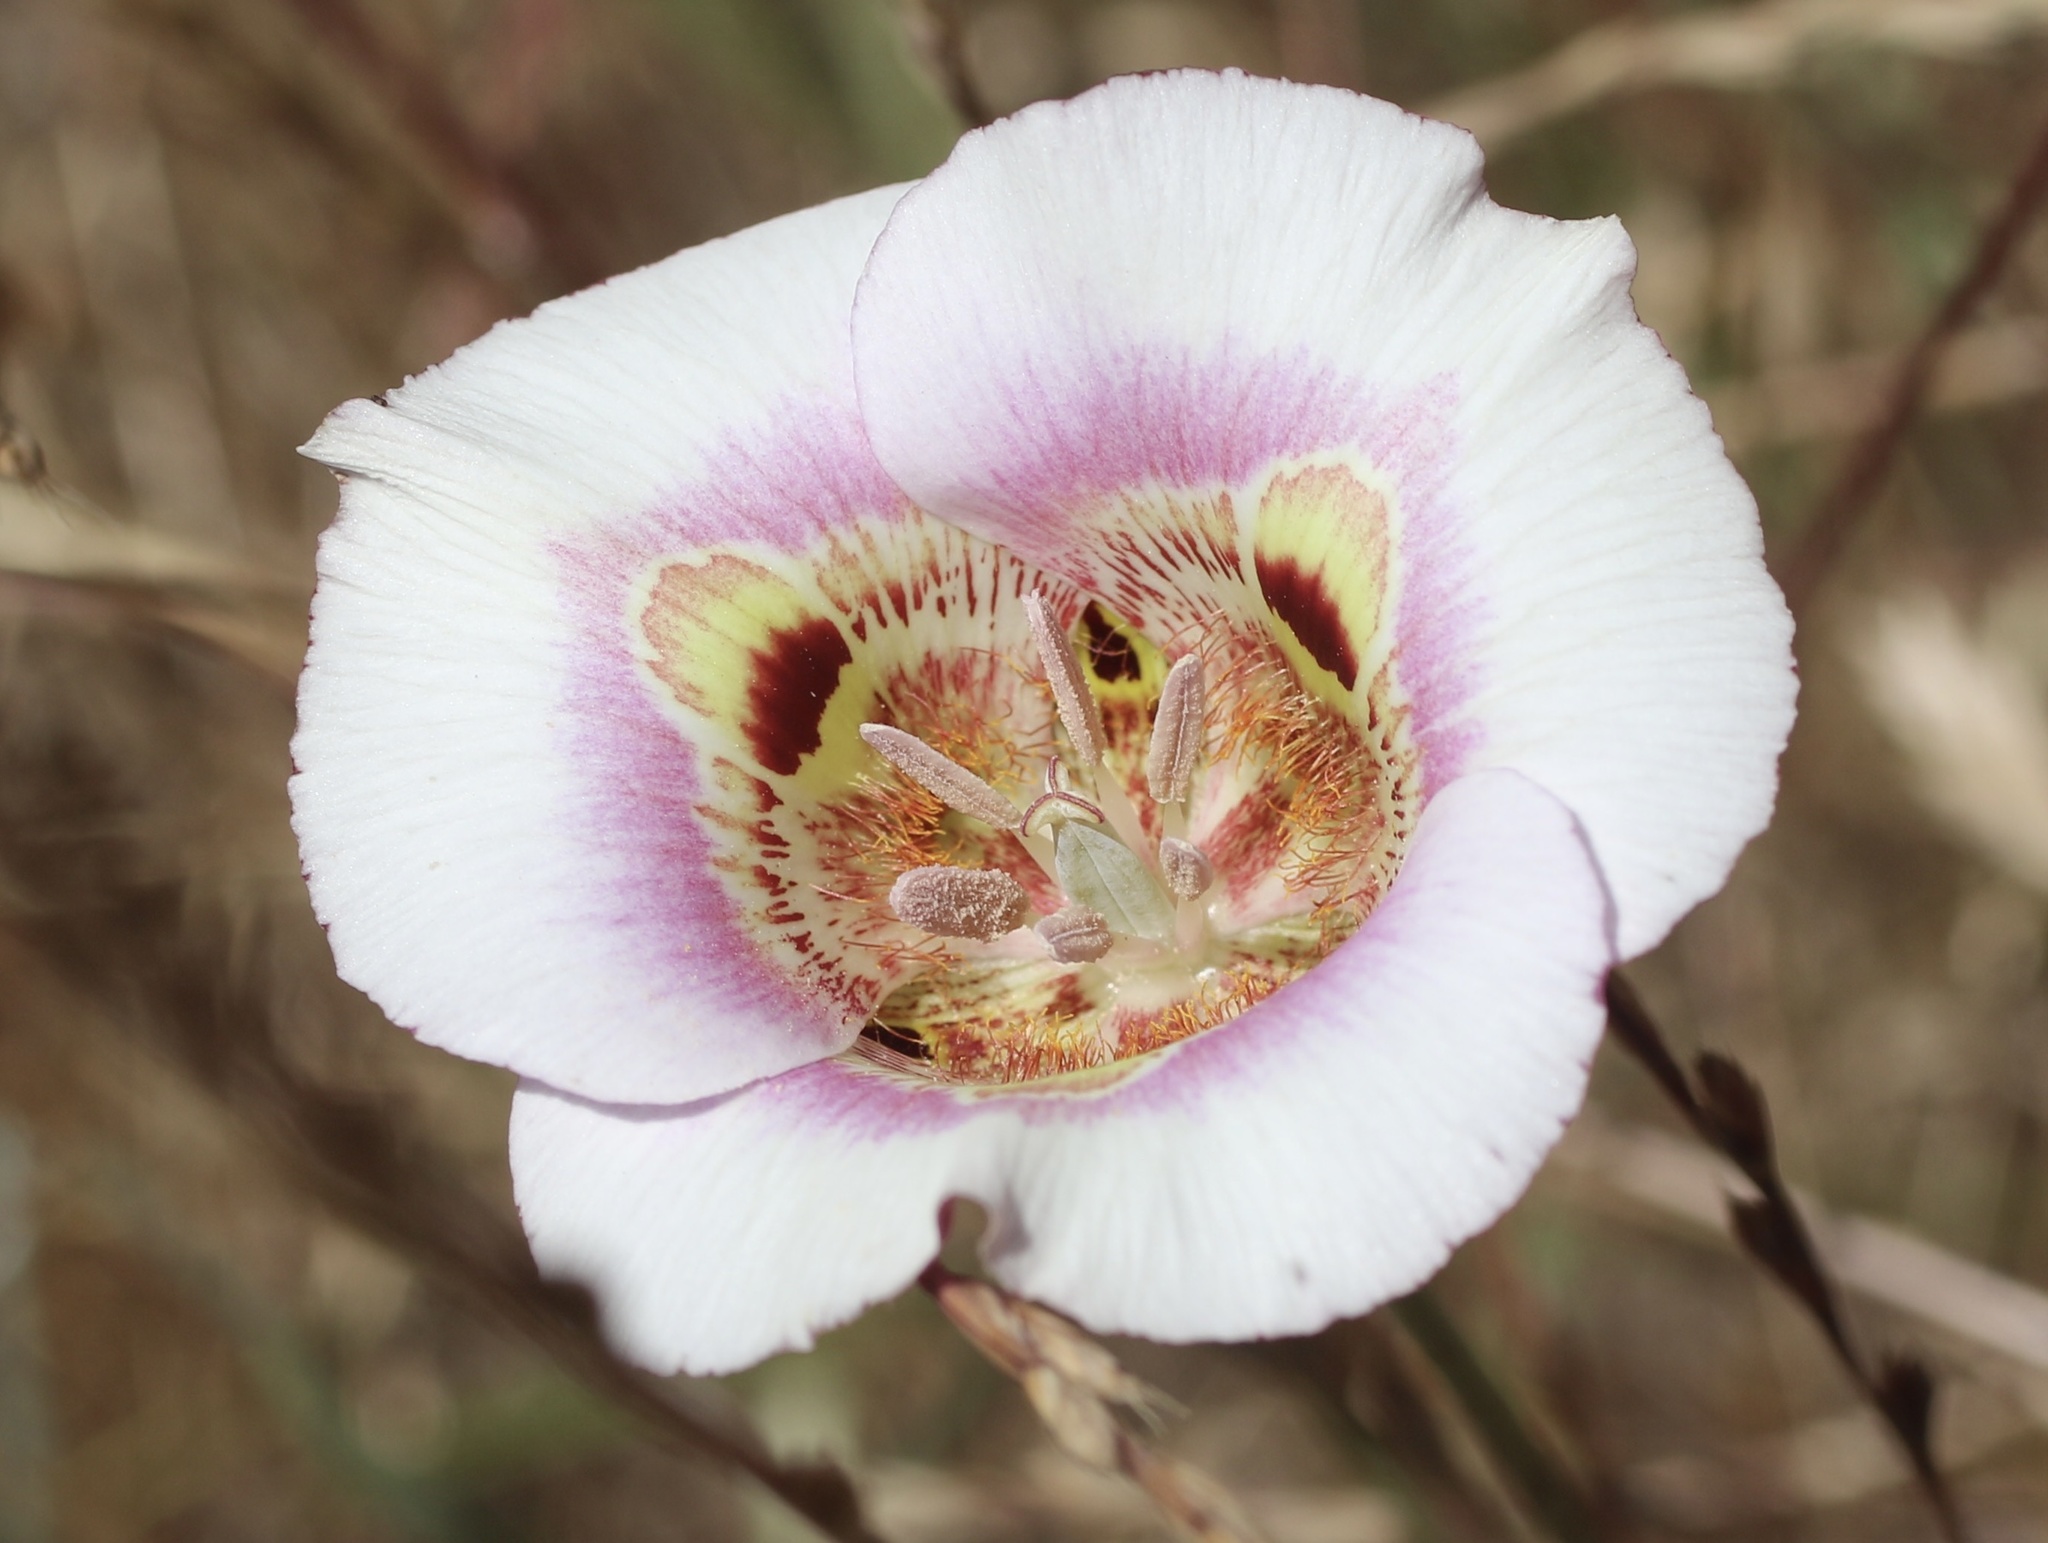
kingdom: Plantae
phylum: Tracheophyta
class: Liliopsida
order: Liliales
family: Liliaceae
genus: Calochortus
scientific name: Calochortus argillosus
